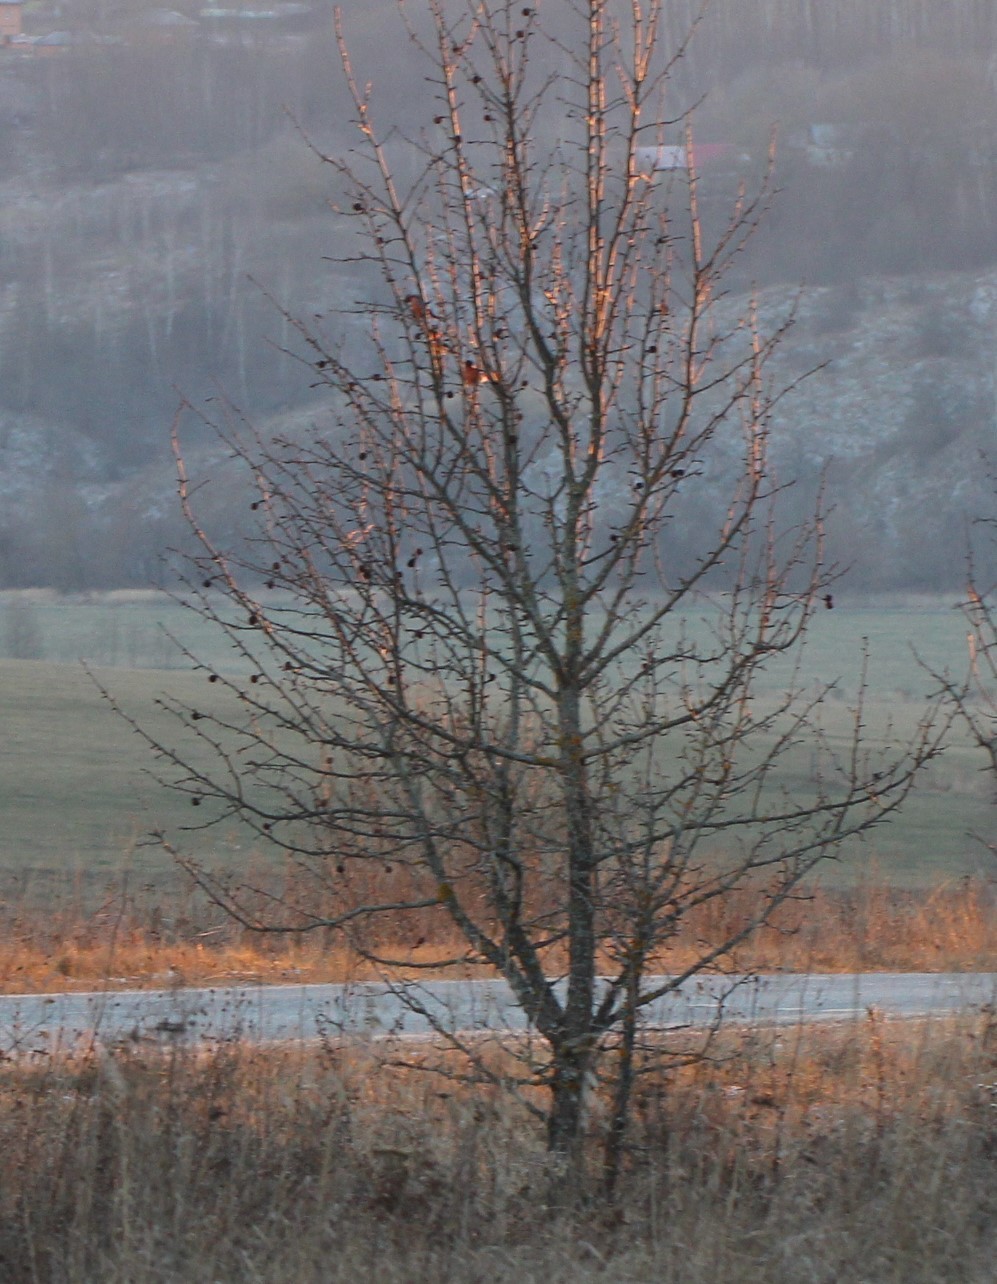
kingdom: Animalia
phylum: Chordata
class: Aves
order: Passeriformes
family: Fringillidae
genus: Pyrrhula
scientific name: Pyrrhula pyrrhula
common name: Eurasian bullfinch
